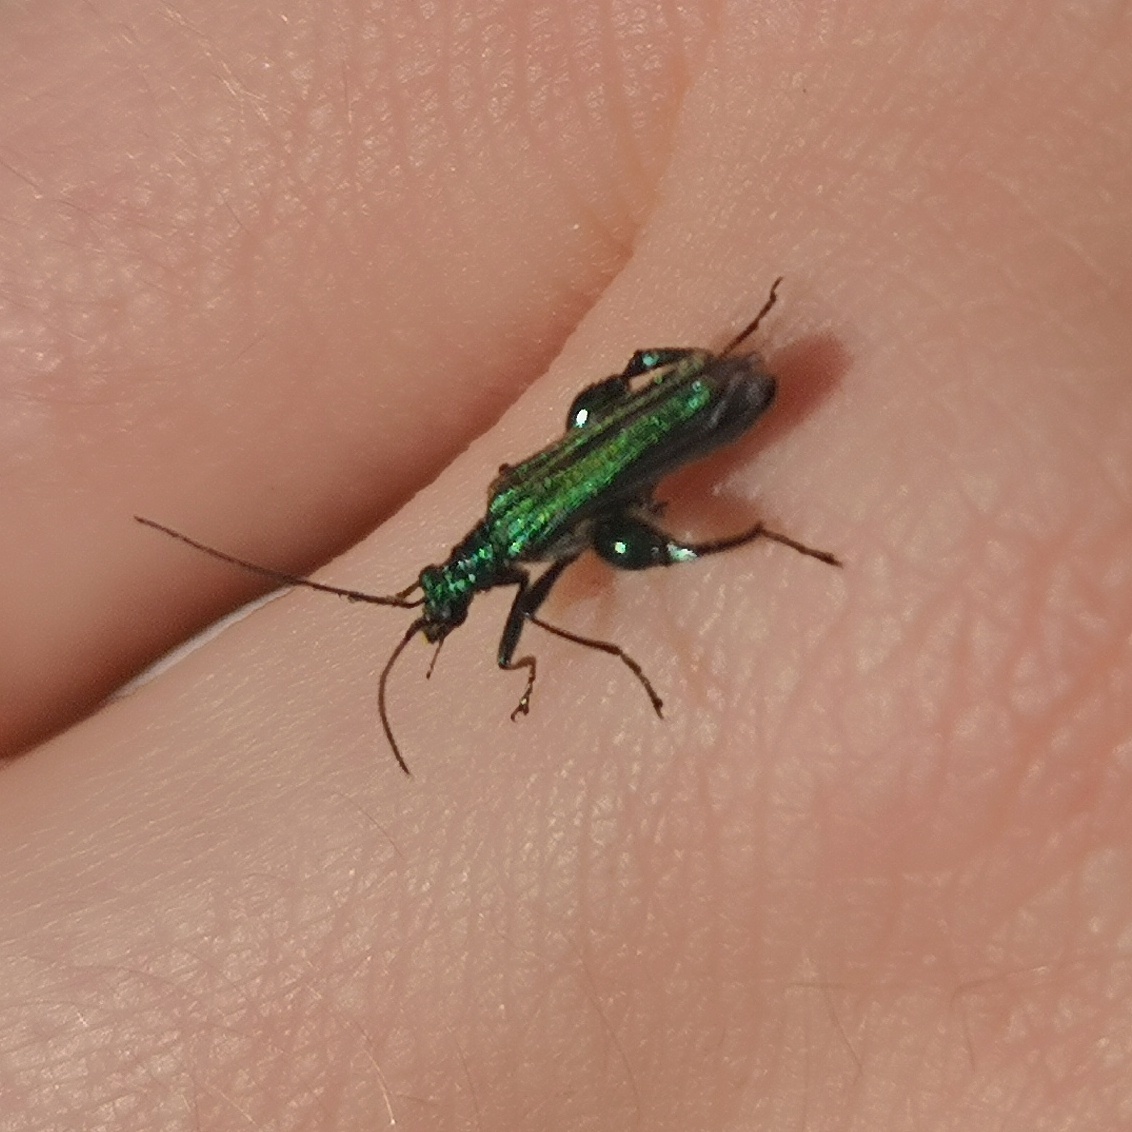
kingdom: Animalia
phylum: Arthropoda
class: Insecta
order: Coleoptera
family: Oedemeridae
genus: Oedemera
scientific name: Oedemera nobilis
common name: Swollen-thighed beetle
